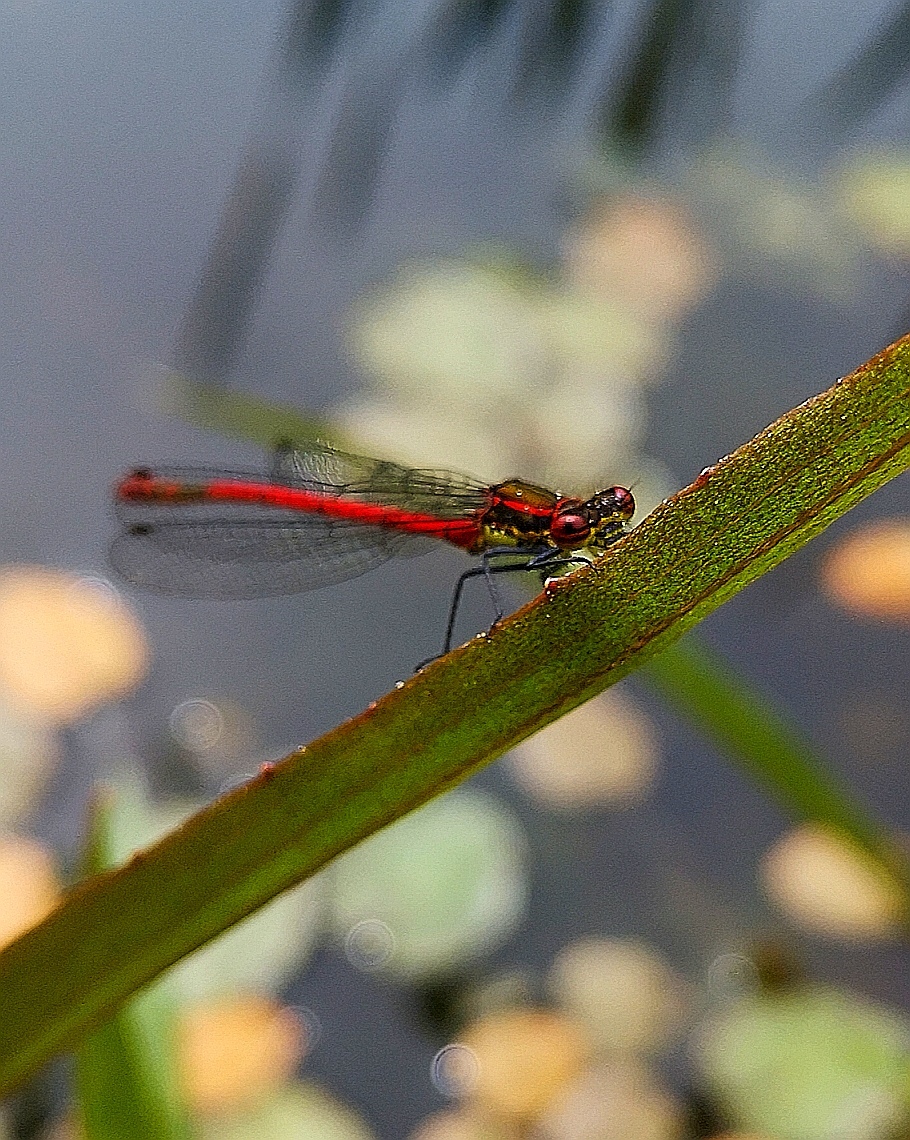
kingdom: Animalia
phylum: Arthropoda
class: Insecta
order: Odonata
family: Coenagrionidae
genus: Pyrrhosoma
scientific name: Pyrrhosoma nymphula
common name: Large red damsel
